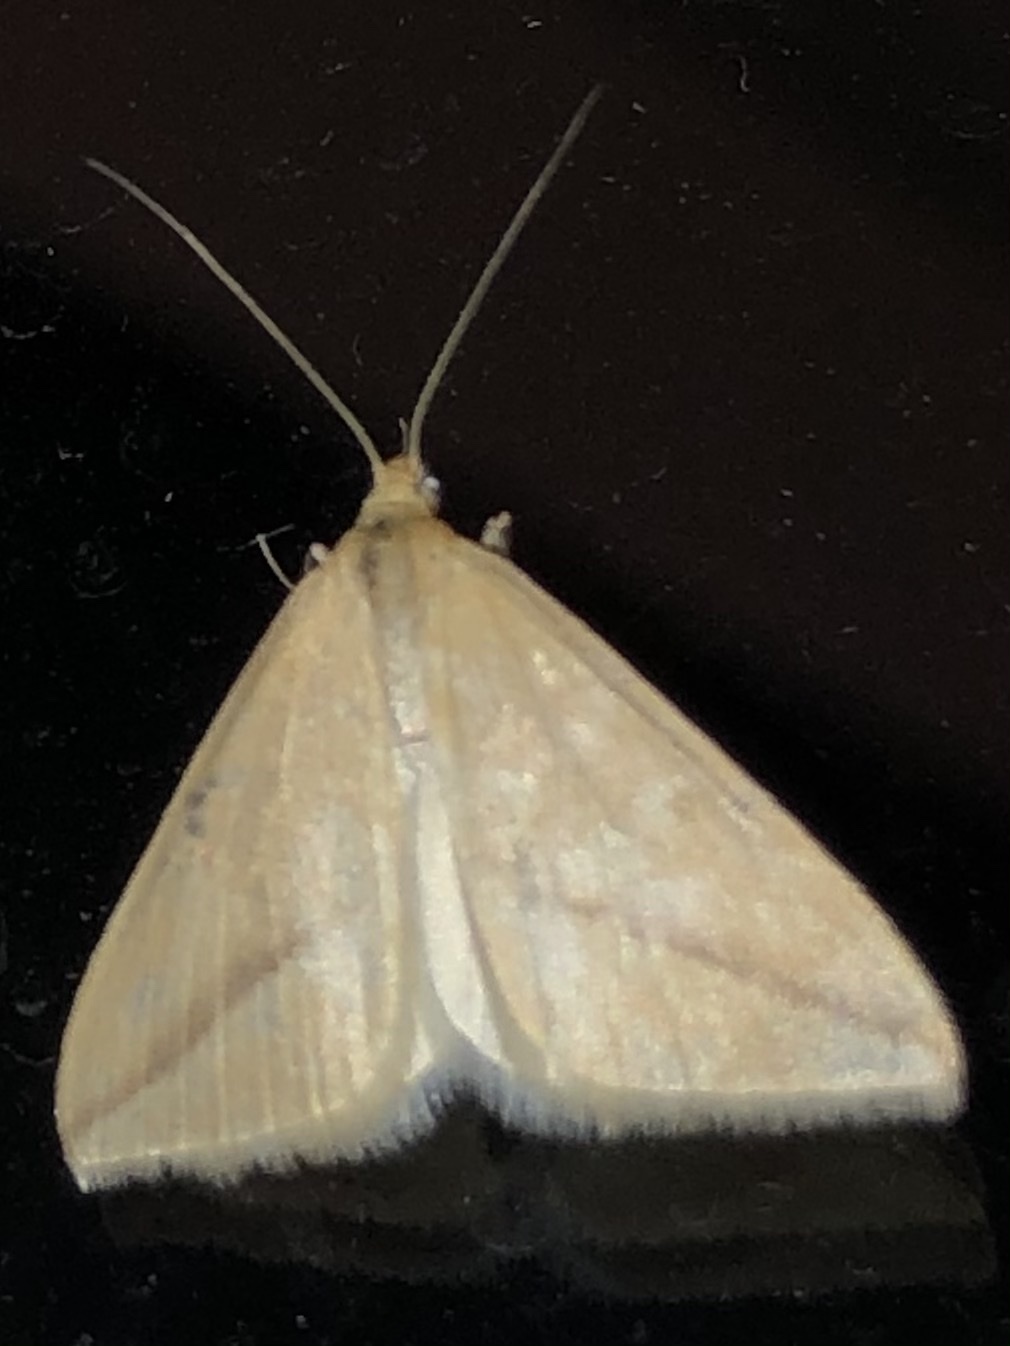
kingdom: Animalia
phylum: Arthropoda
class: Insecta
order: Lepidoptera
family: Geometridae
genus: Rhodometra
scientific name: Rhodometra sacraria
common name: Vestal
